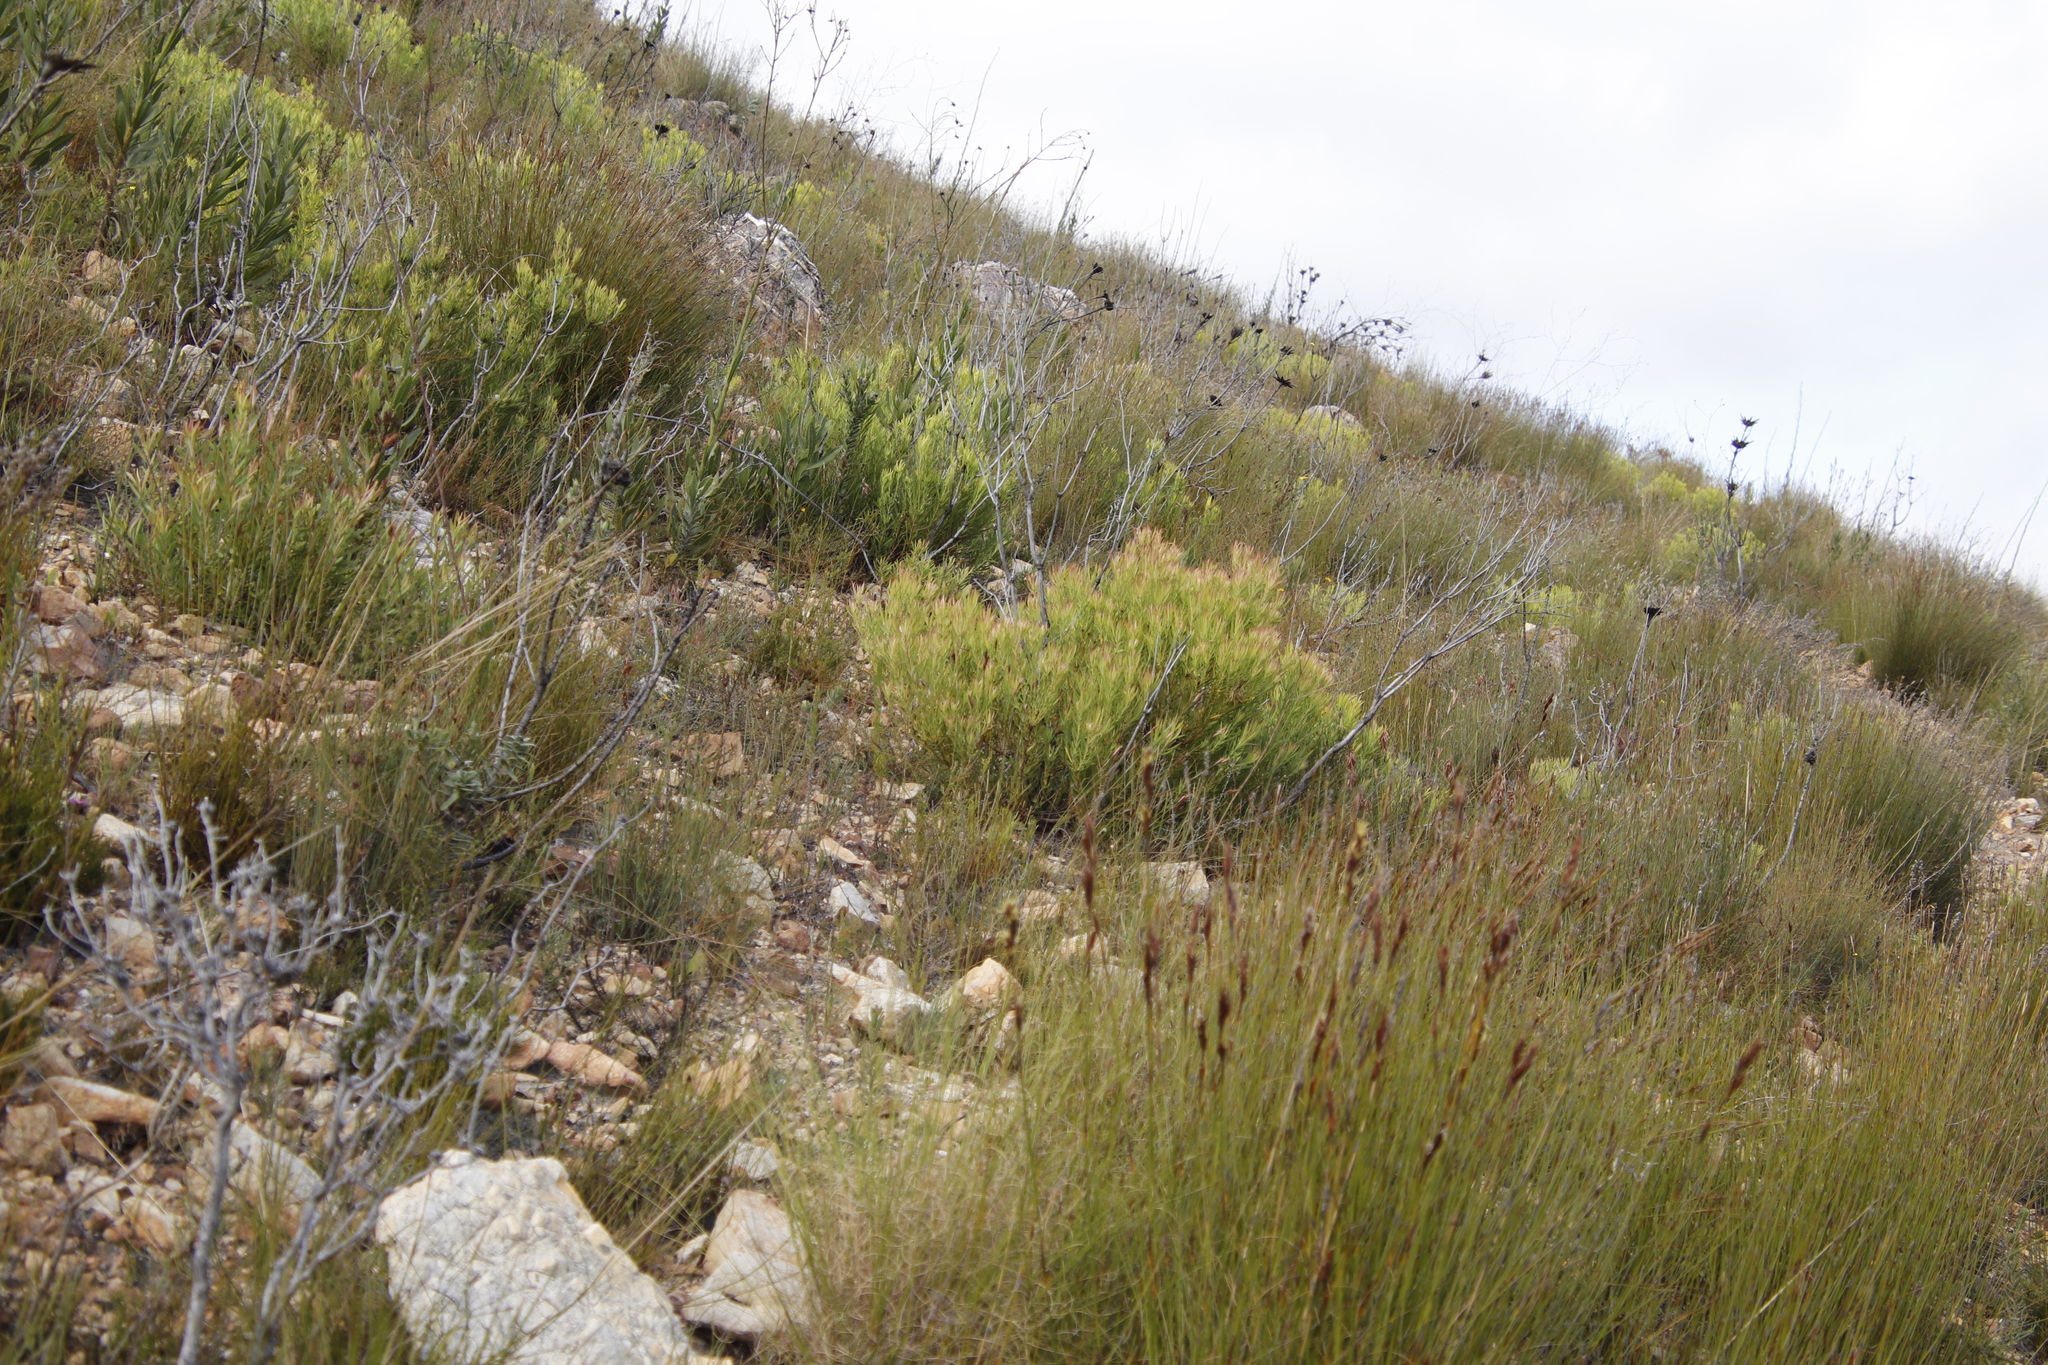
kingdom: Plantae
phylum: Tracheophyta
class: Magnoliopsida
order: Proteales
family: Proteaceae
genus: Leucadendron
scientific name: Leucadendron salignum
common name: Common sunshine conebush
